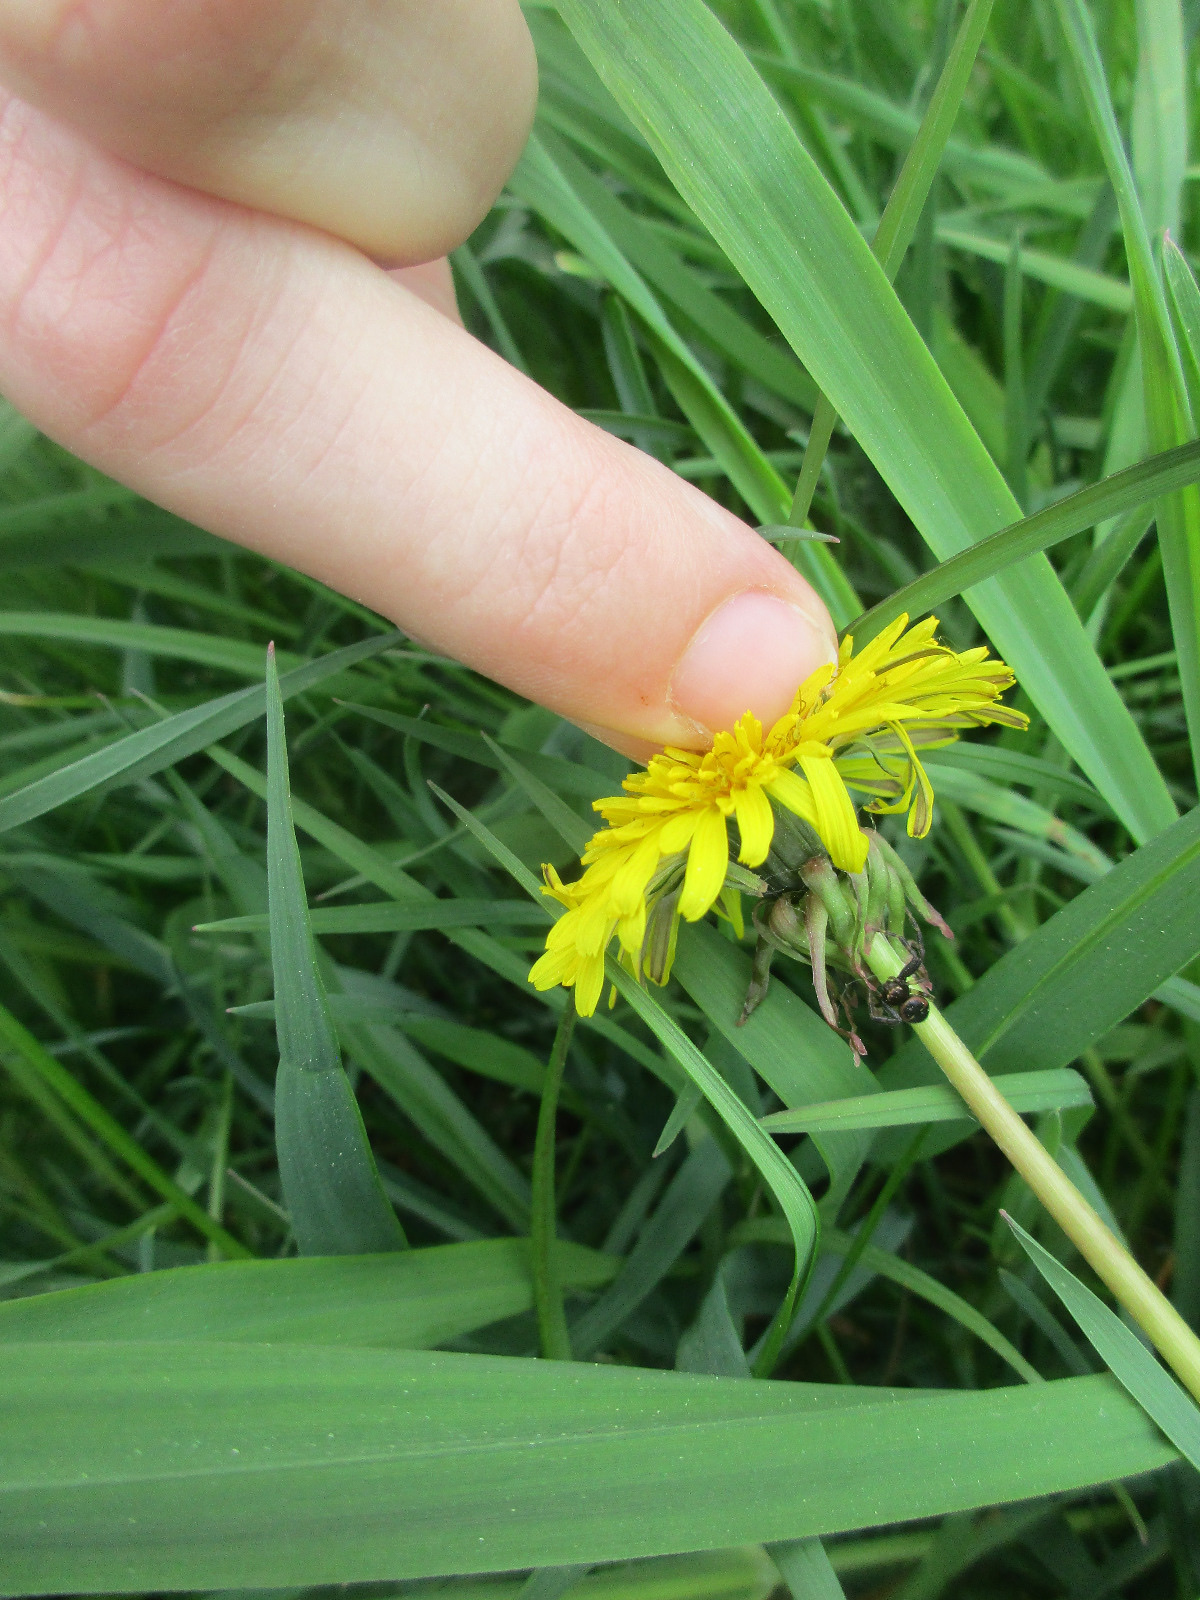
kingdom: Animalia
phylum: Arthropoda
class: Arachnida
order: Araneae
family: Thomisidae
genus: Synema
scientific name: Synema globosum
